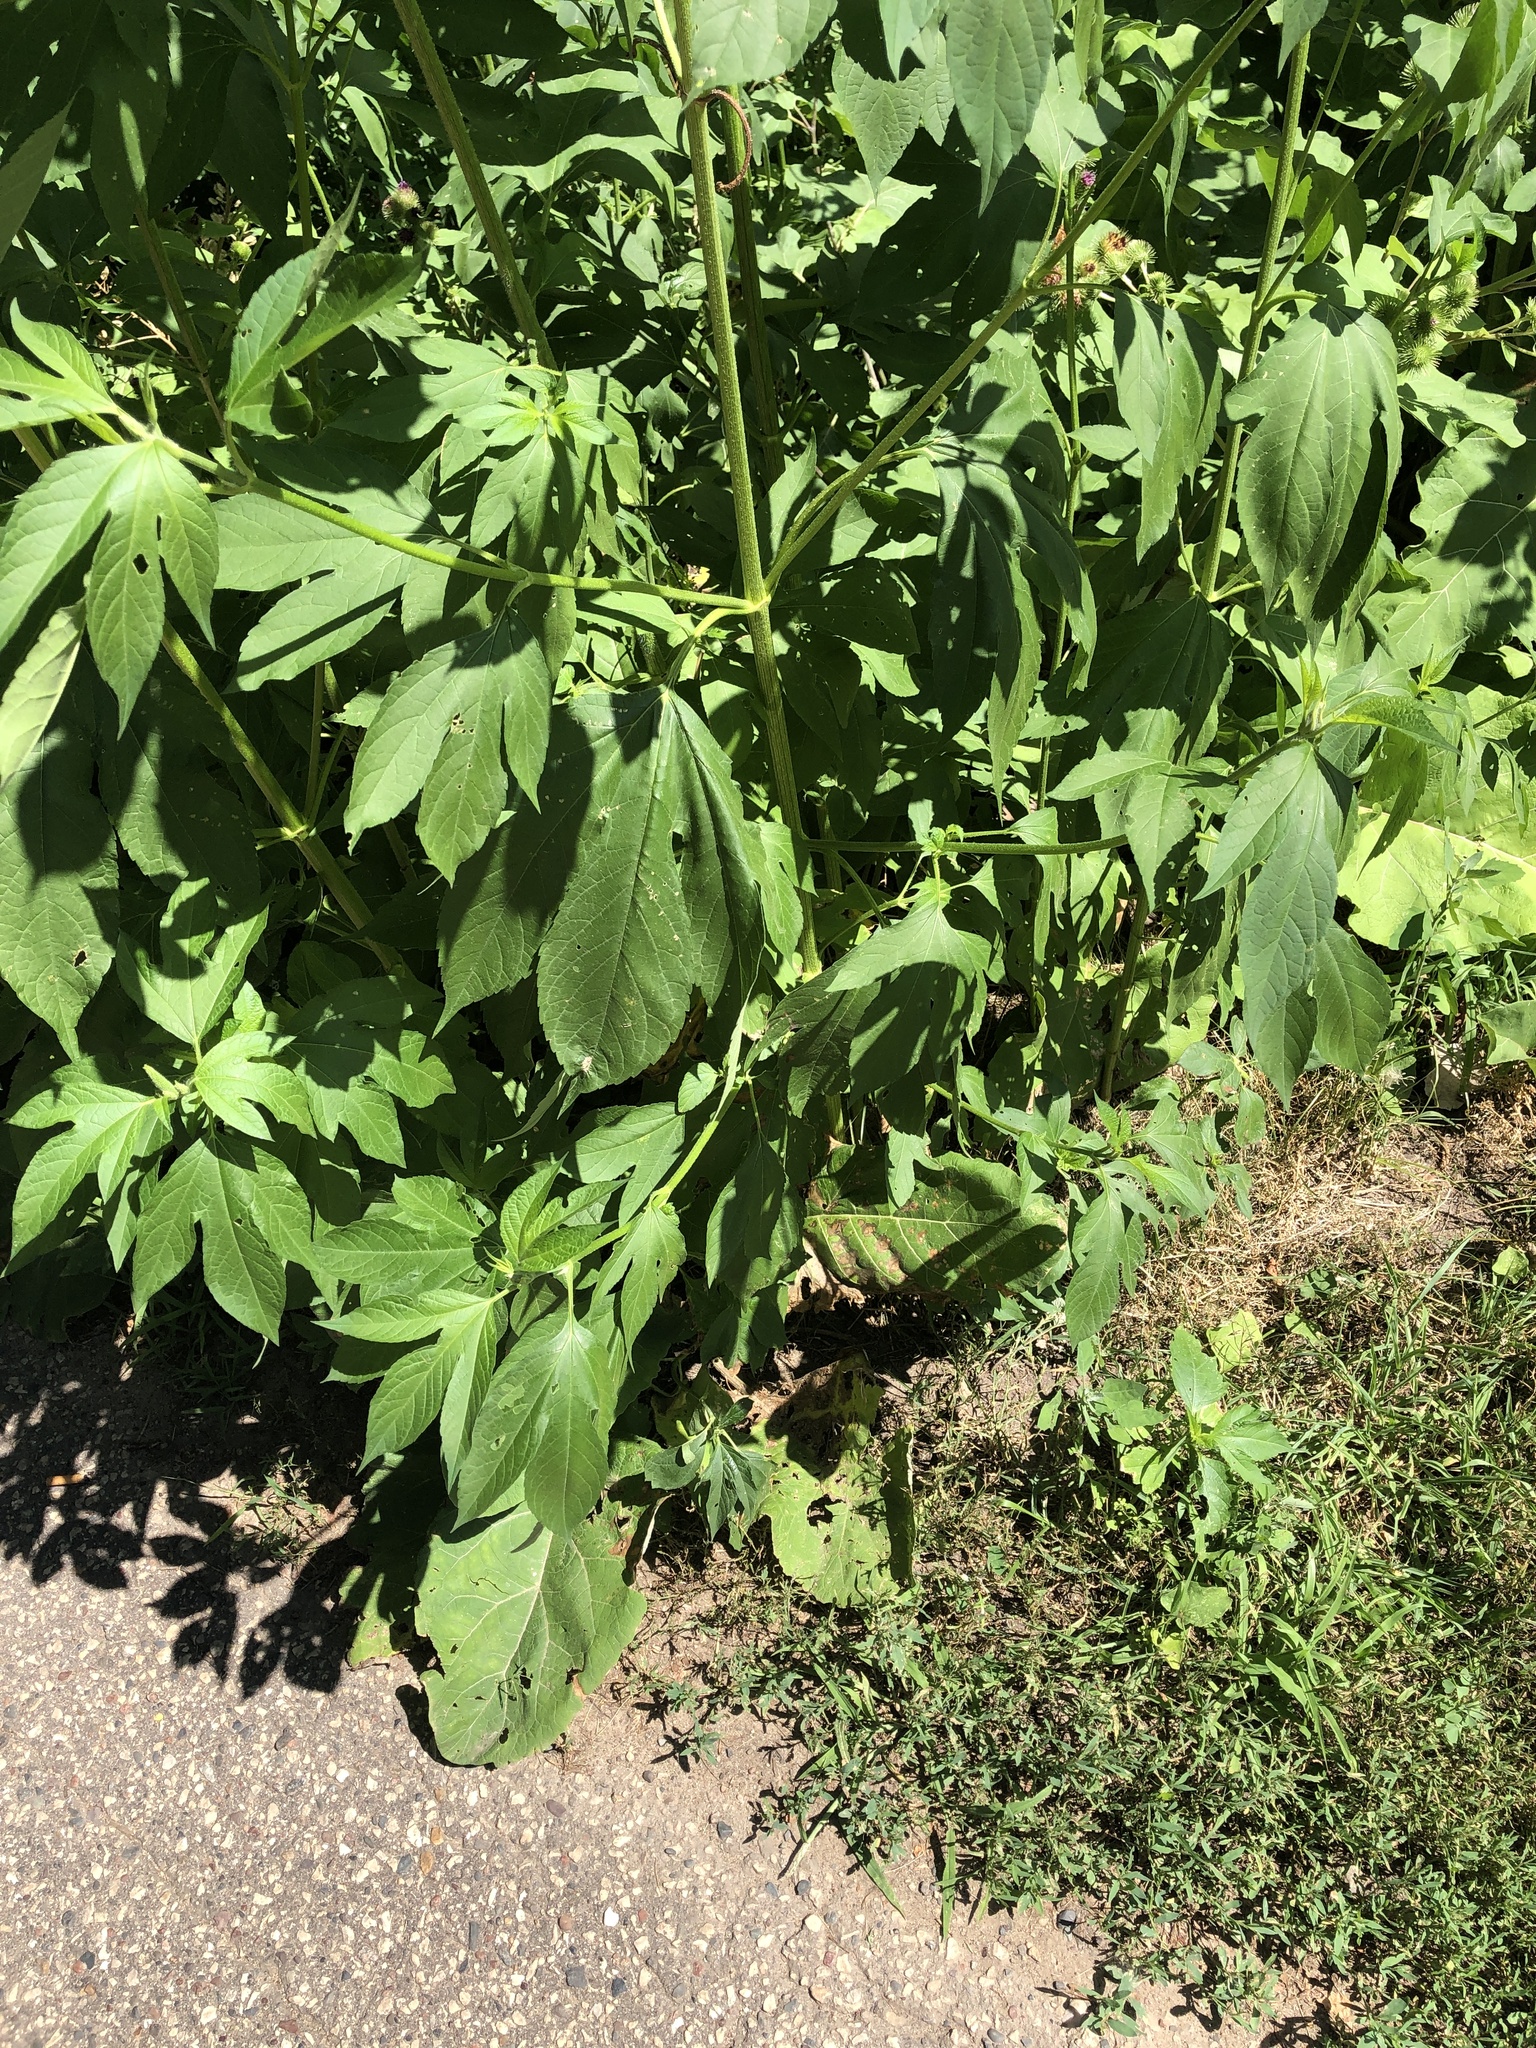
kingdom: Plantae
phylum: Tracheophyta
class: Magnoliopsida
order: Asterales
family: Asteraceae
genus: Ambrosia
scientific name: Ambrosia trifida
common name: Giant ragweed
